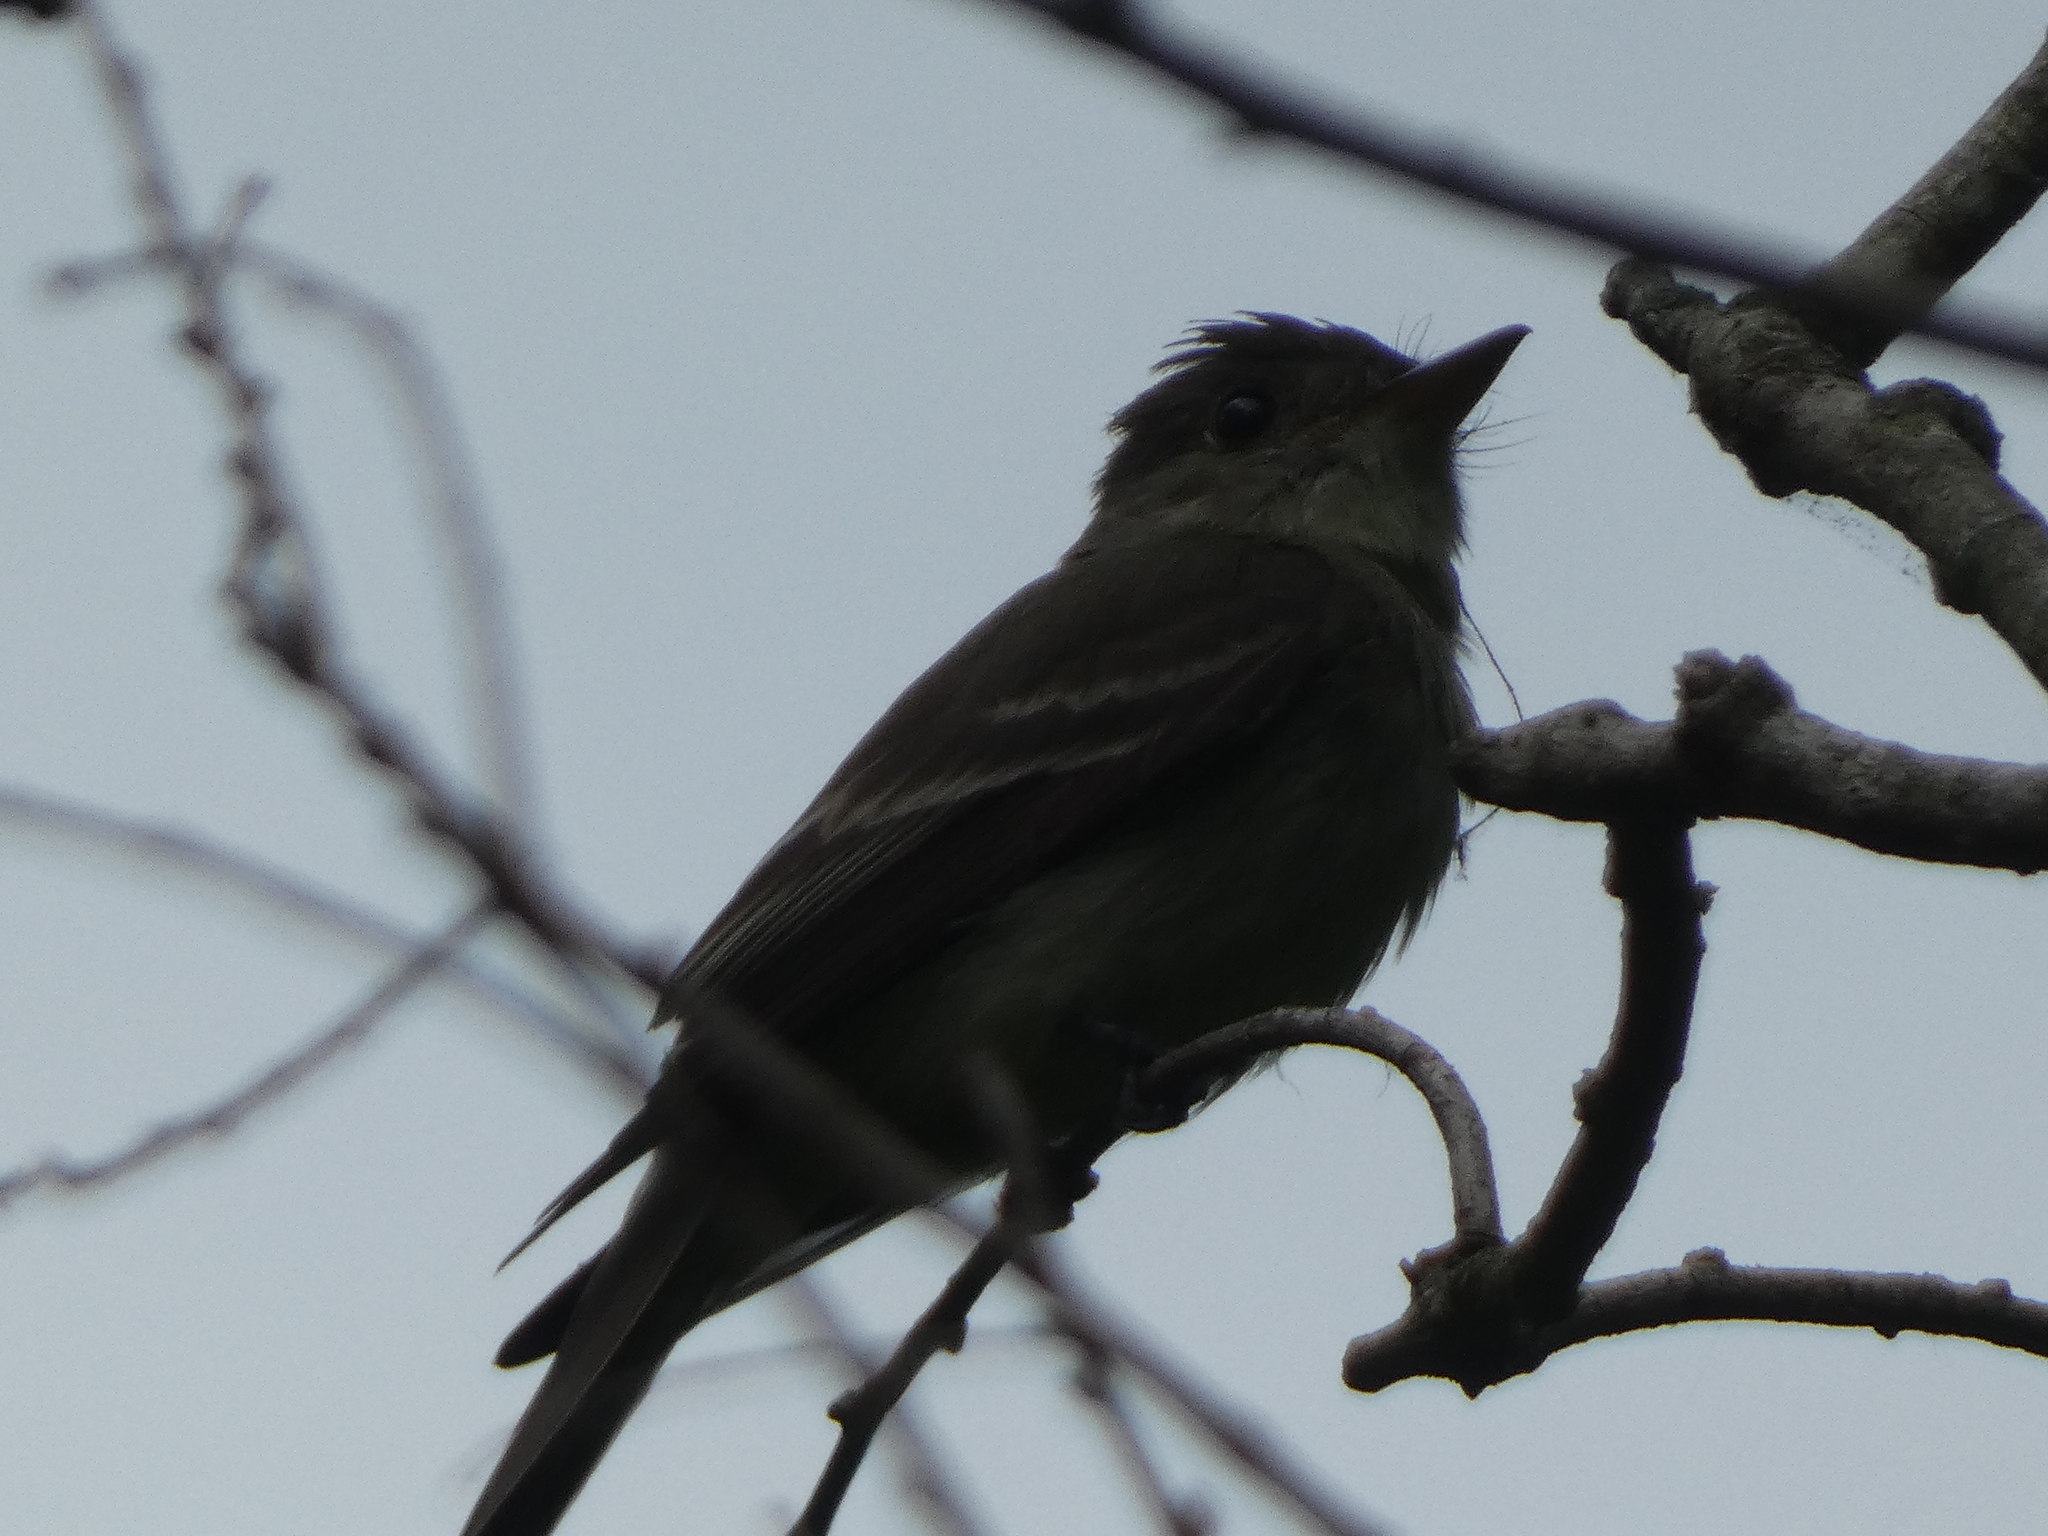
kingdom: Animalia
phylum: Chordata
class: Aves
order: Passeriformes
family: Tyrannidae
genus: Contopus
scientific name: Contopus virens
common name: Eastern wood-pewee
